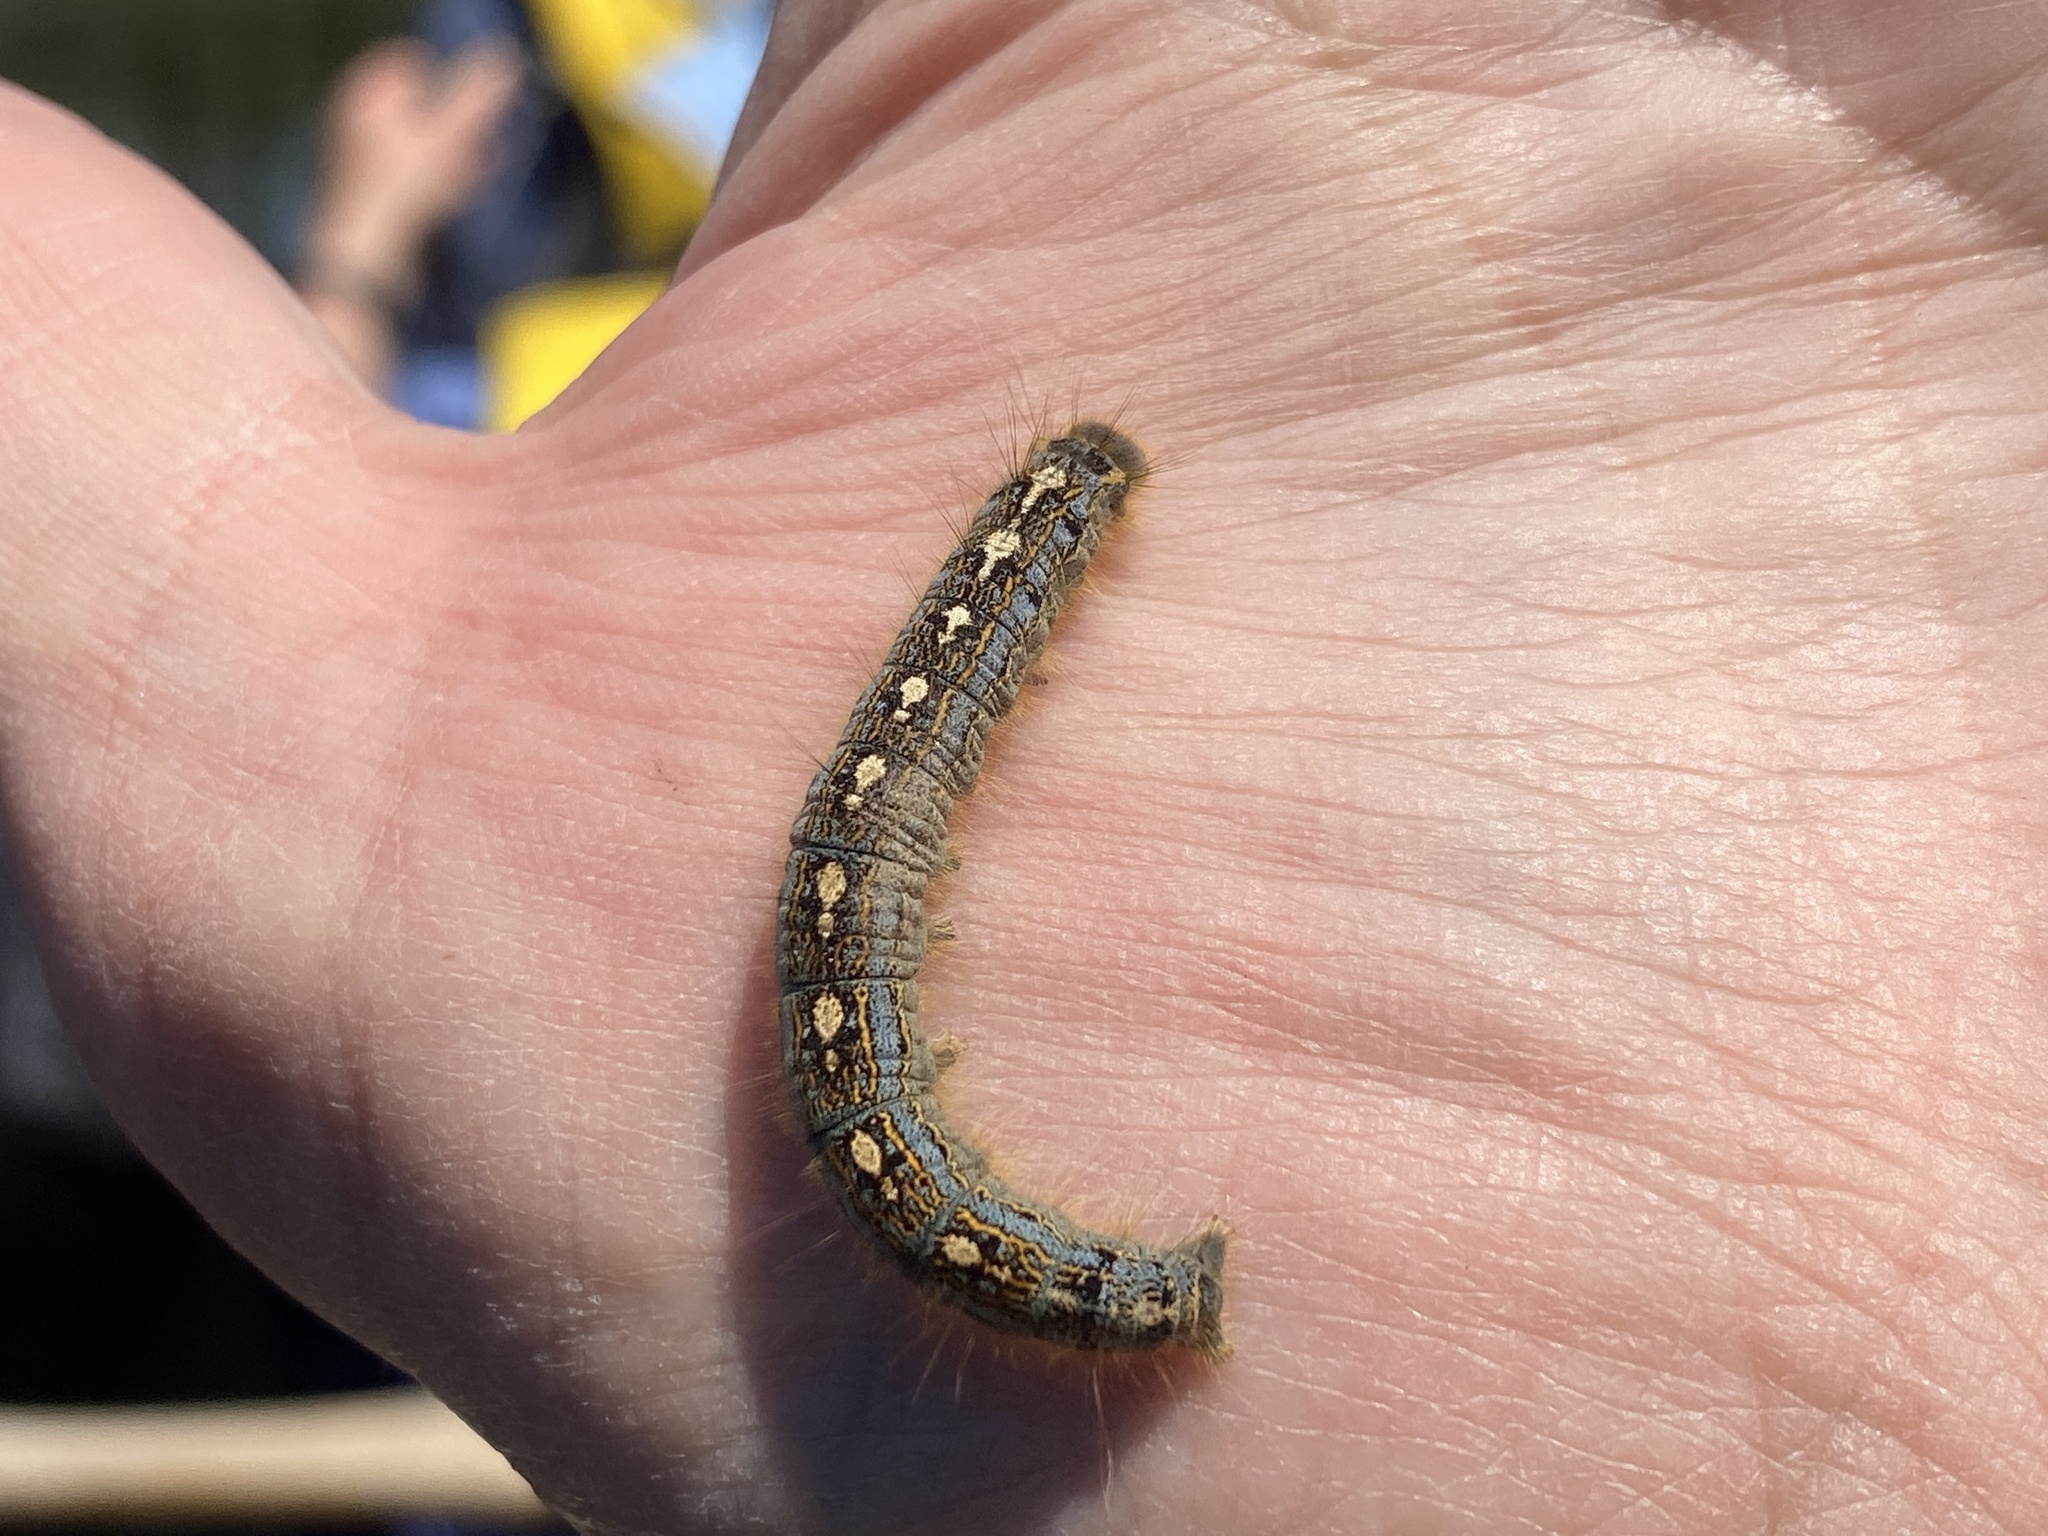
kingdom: Animalia
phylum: Arthropoda
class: Insecta
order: Lepidoptera
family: Lasiocampidae
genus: Malacosoma
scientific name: Malacosoma disstria
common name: Forest tent caterpillar
